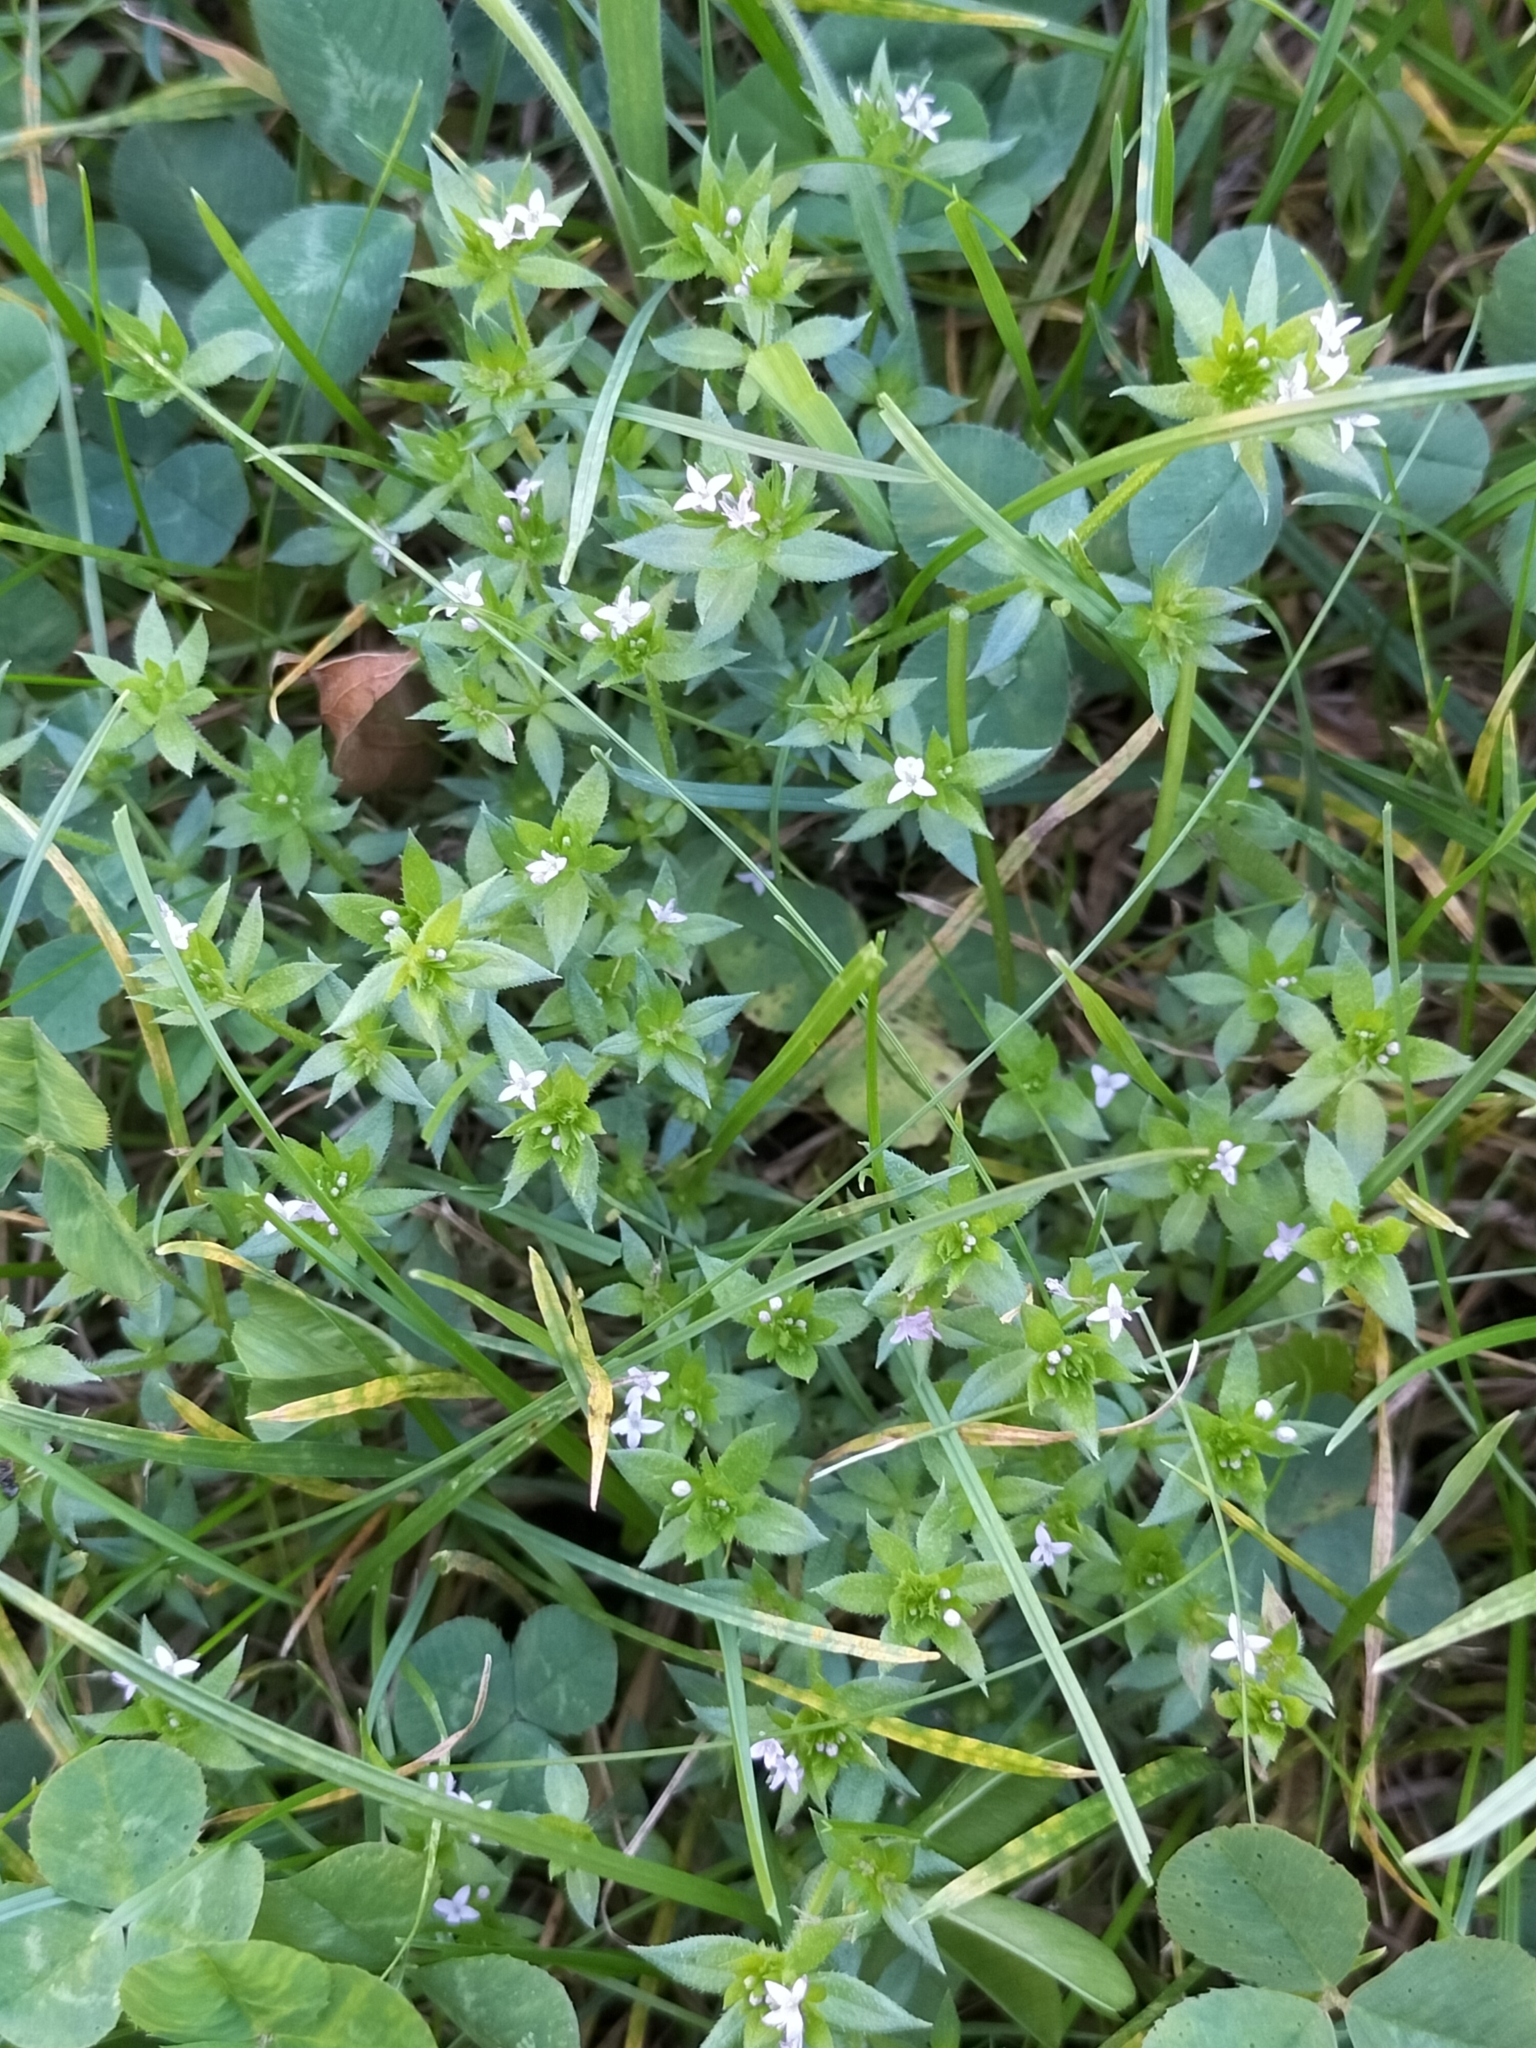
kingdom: Plantae
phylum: Tracheophyta
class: Magnoliopsida
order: Gentianales
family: Rubiaceae
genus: Sherardia
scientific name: Sherardia arvensis
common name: Field madder
